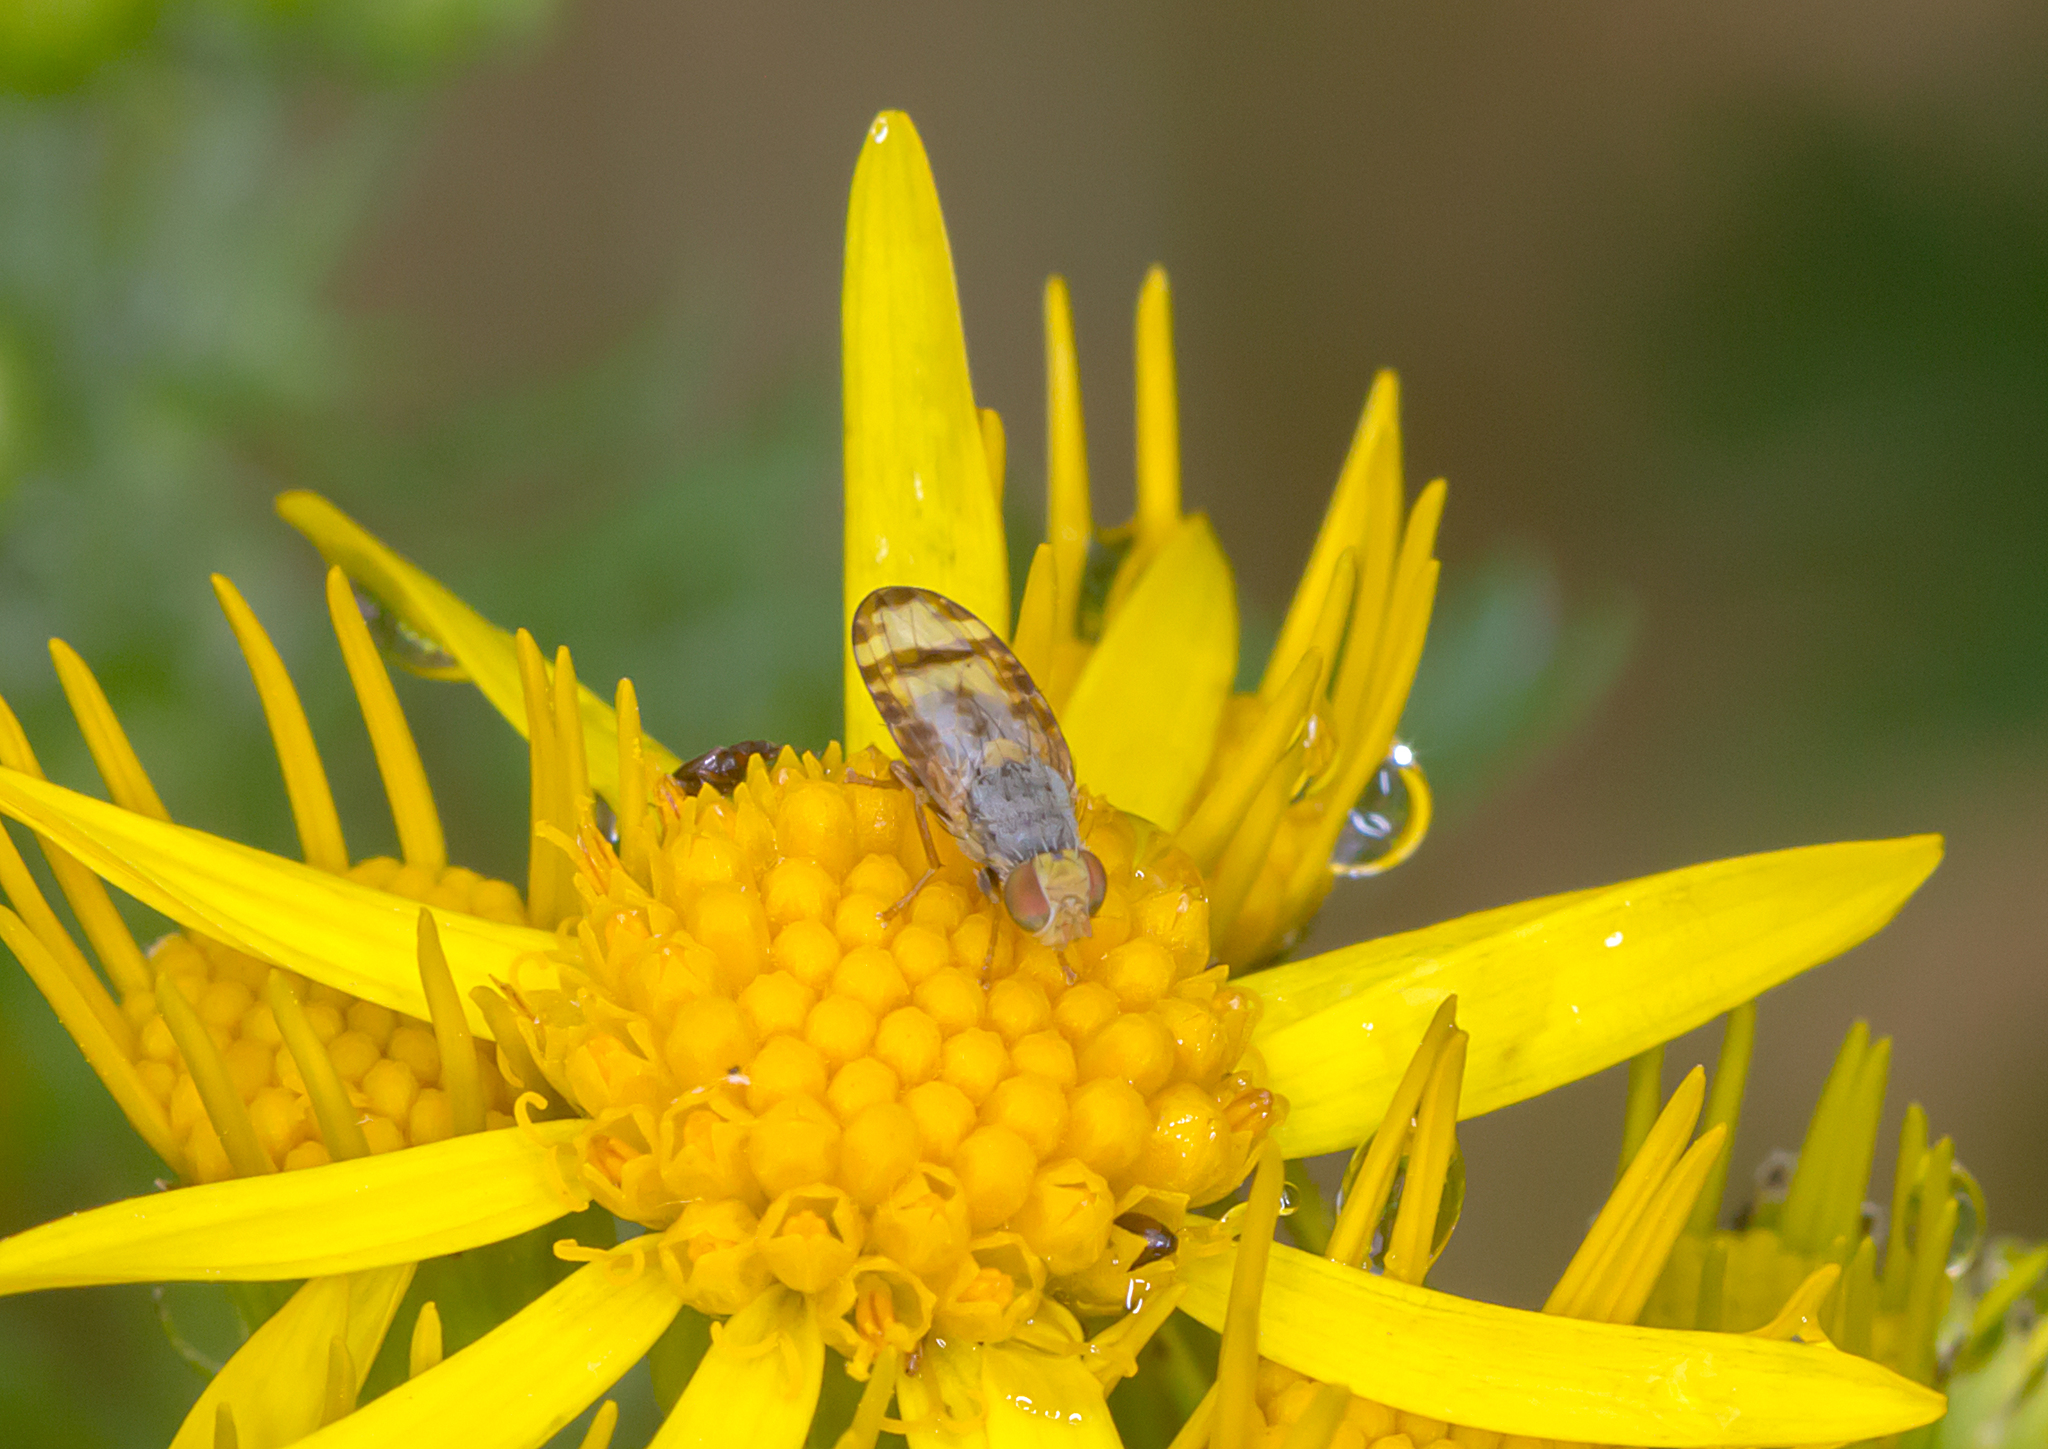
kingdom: Animalia
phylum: Arthropoda
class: Insecta
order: Diptera
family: Tephritidae
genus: Sphenella
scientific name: Sphenella ruficeps
